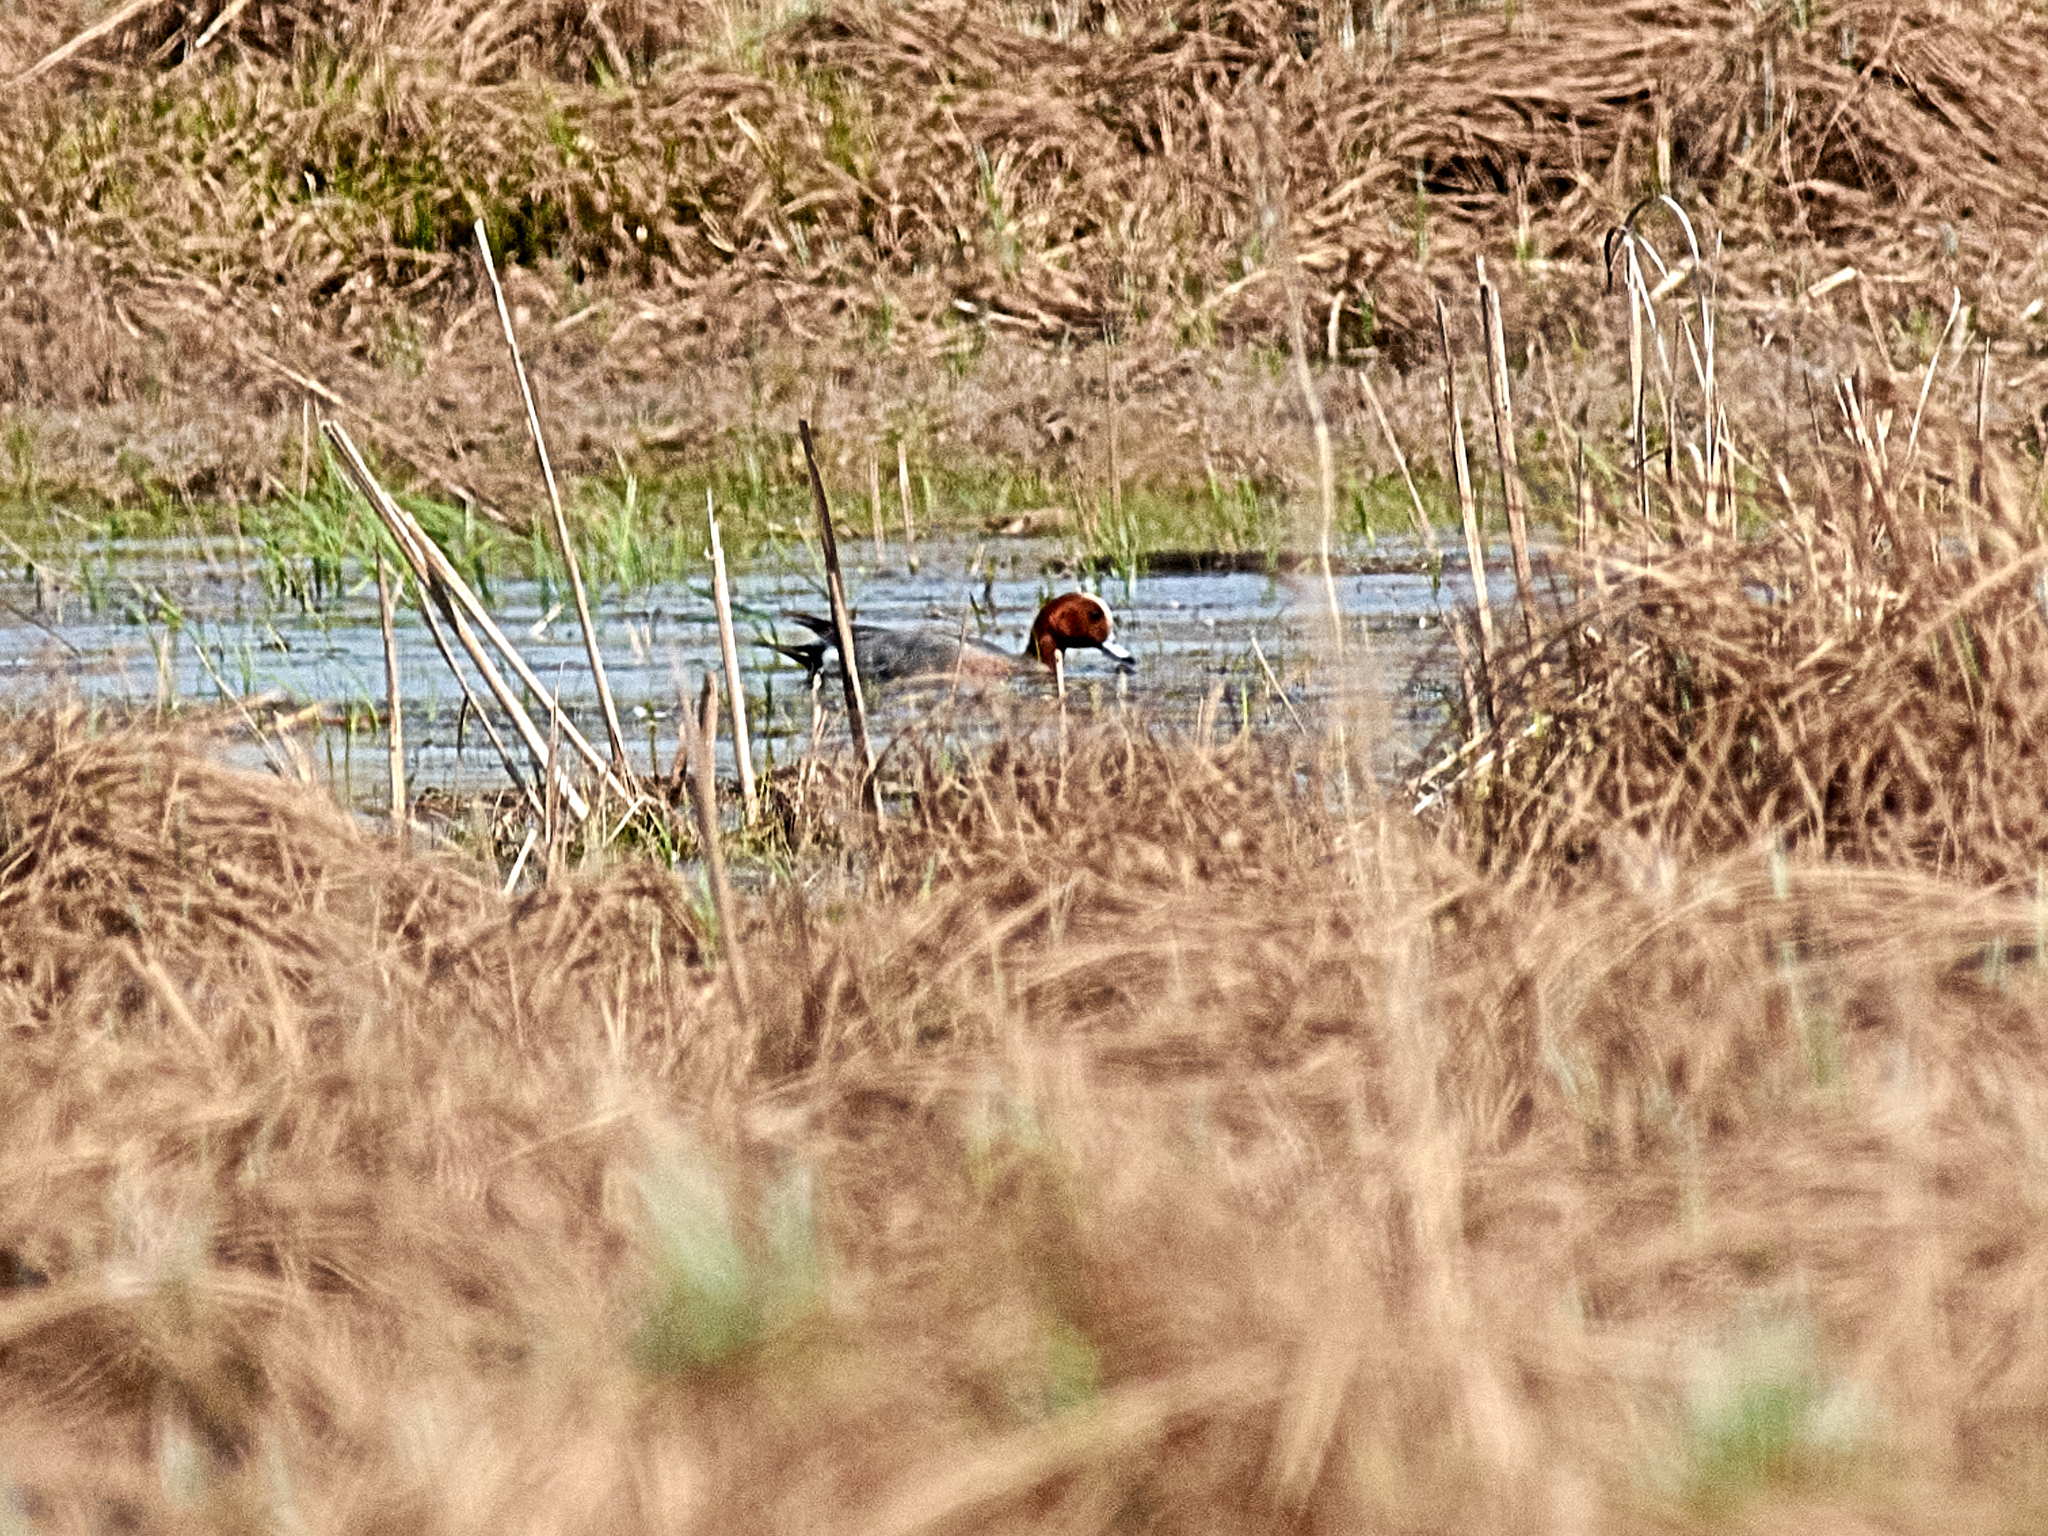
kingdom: Animalia
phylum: Chordata
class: Aves
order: Anseriformes
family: Anatidae
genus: Mareca
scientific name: Mareca penelope
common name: Eurasian wigeon
